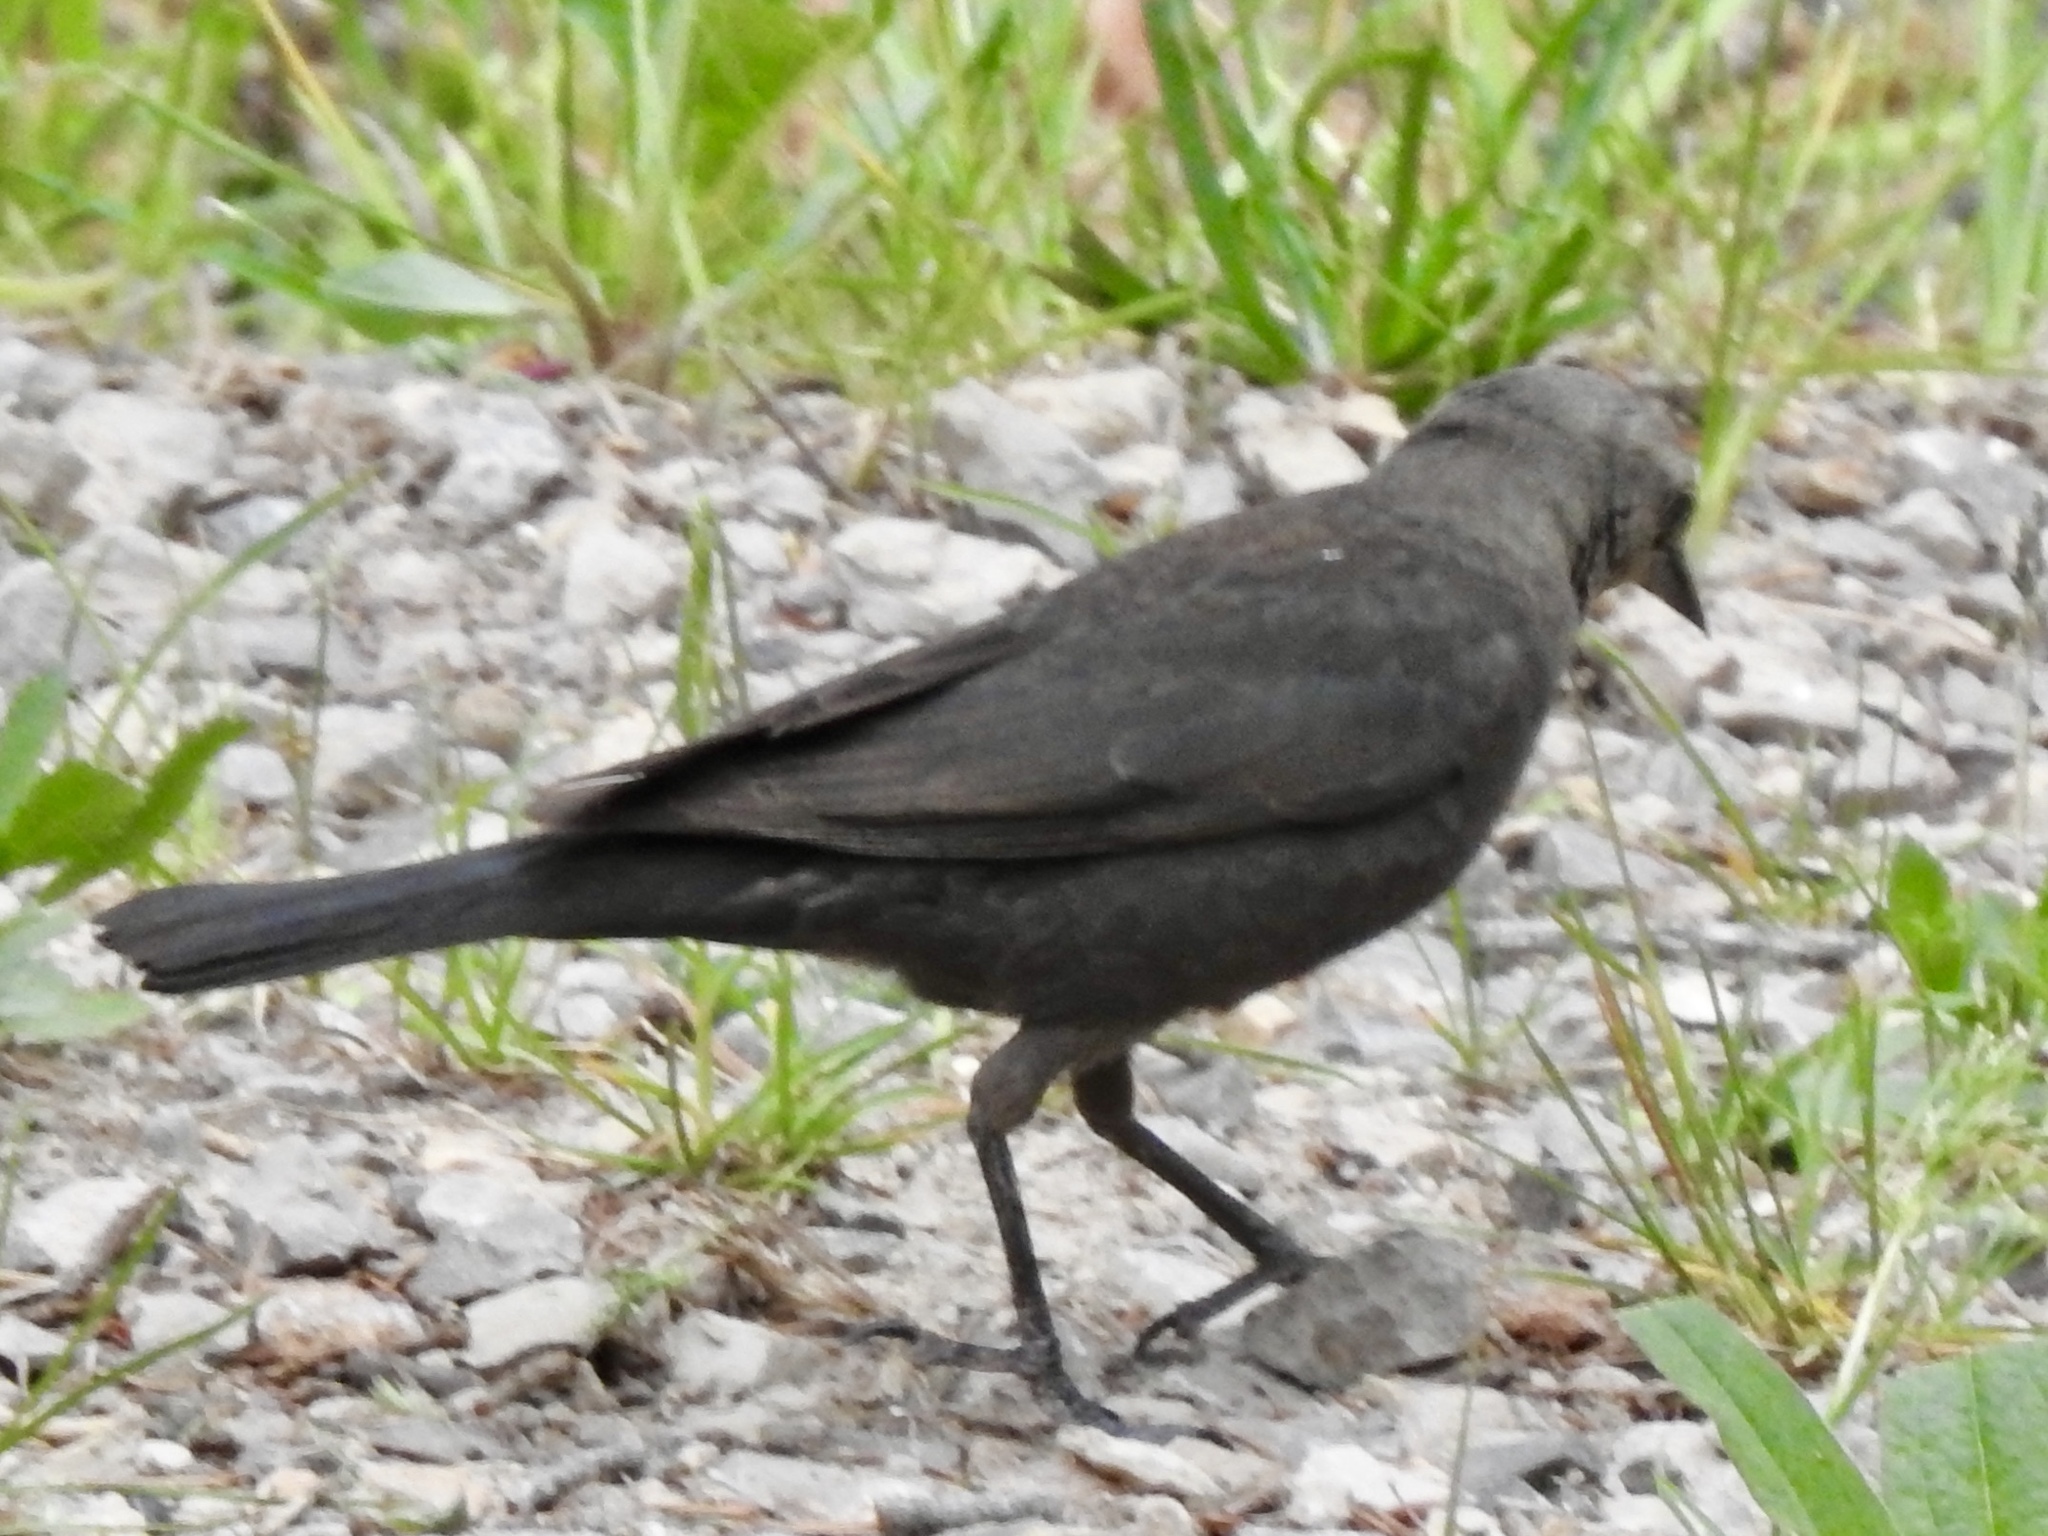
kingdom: Animalia
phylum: Chordata
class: Aves
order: Passeriformes
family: Icteridae
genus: Molothrus
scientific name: Molothrus ater
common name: Brown-headed cowbird
